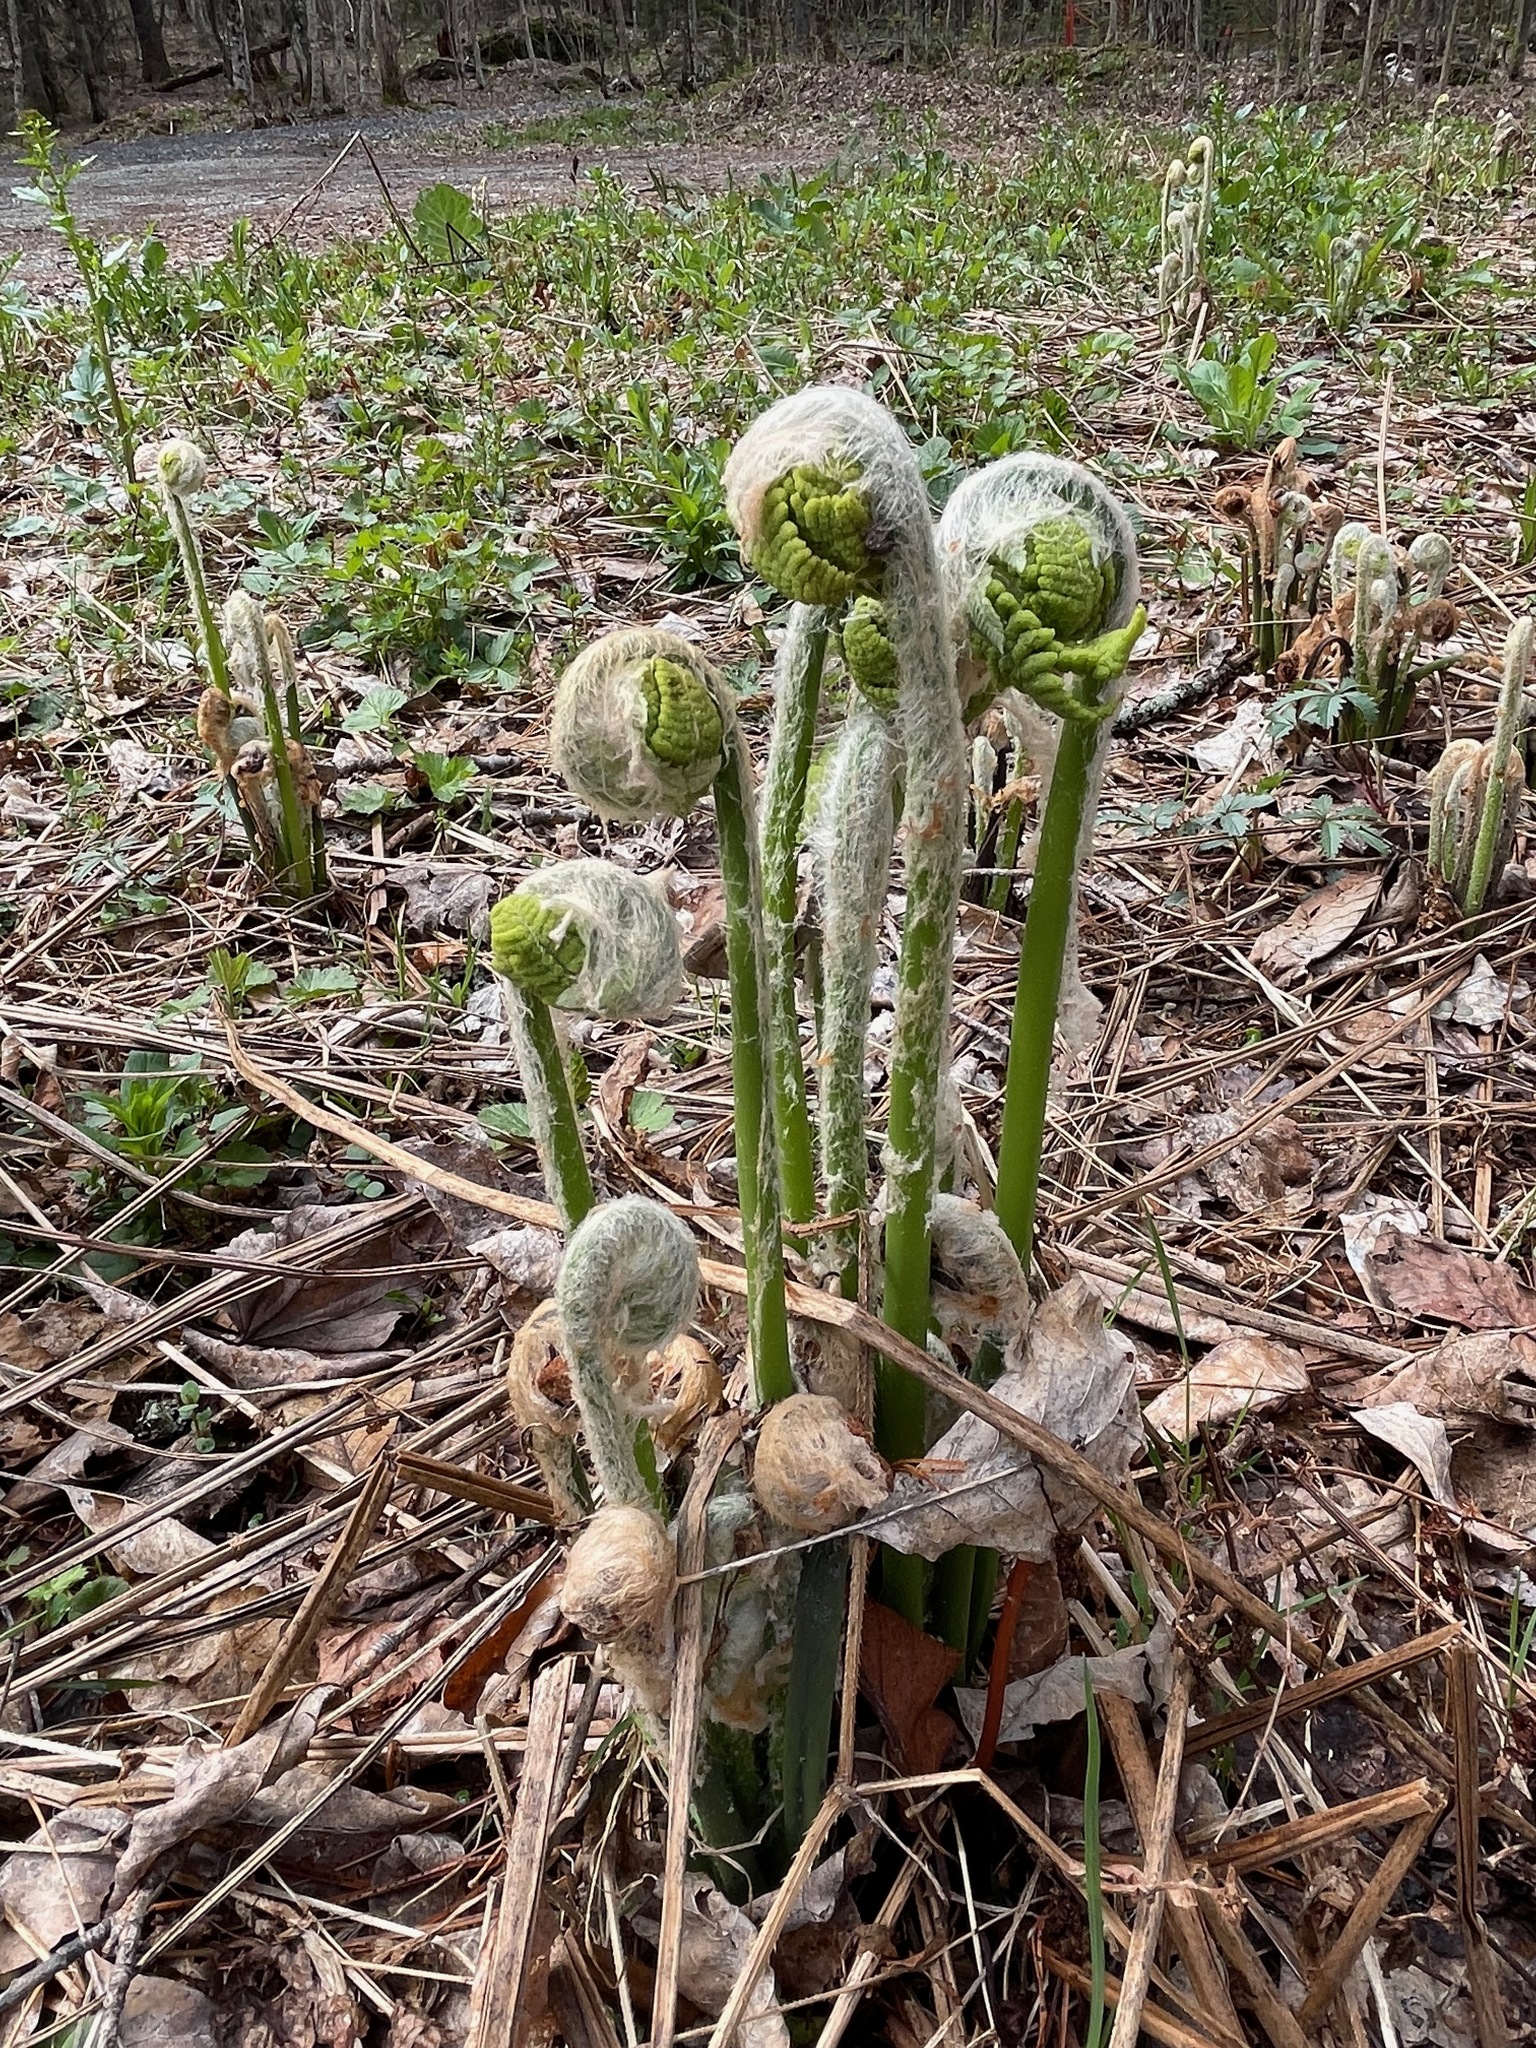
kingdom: Plantae
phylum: Tracheophyta
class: Polypodiopsida
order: Osmundales
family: Osmundaceae
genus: Claytosmunda
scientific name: Claytosmunda claytoniana
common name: Clayton's fern
